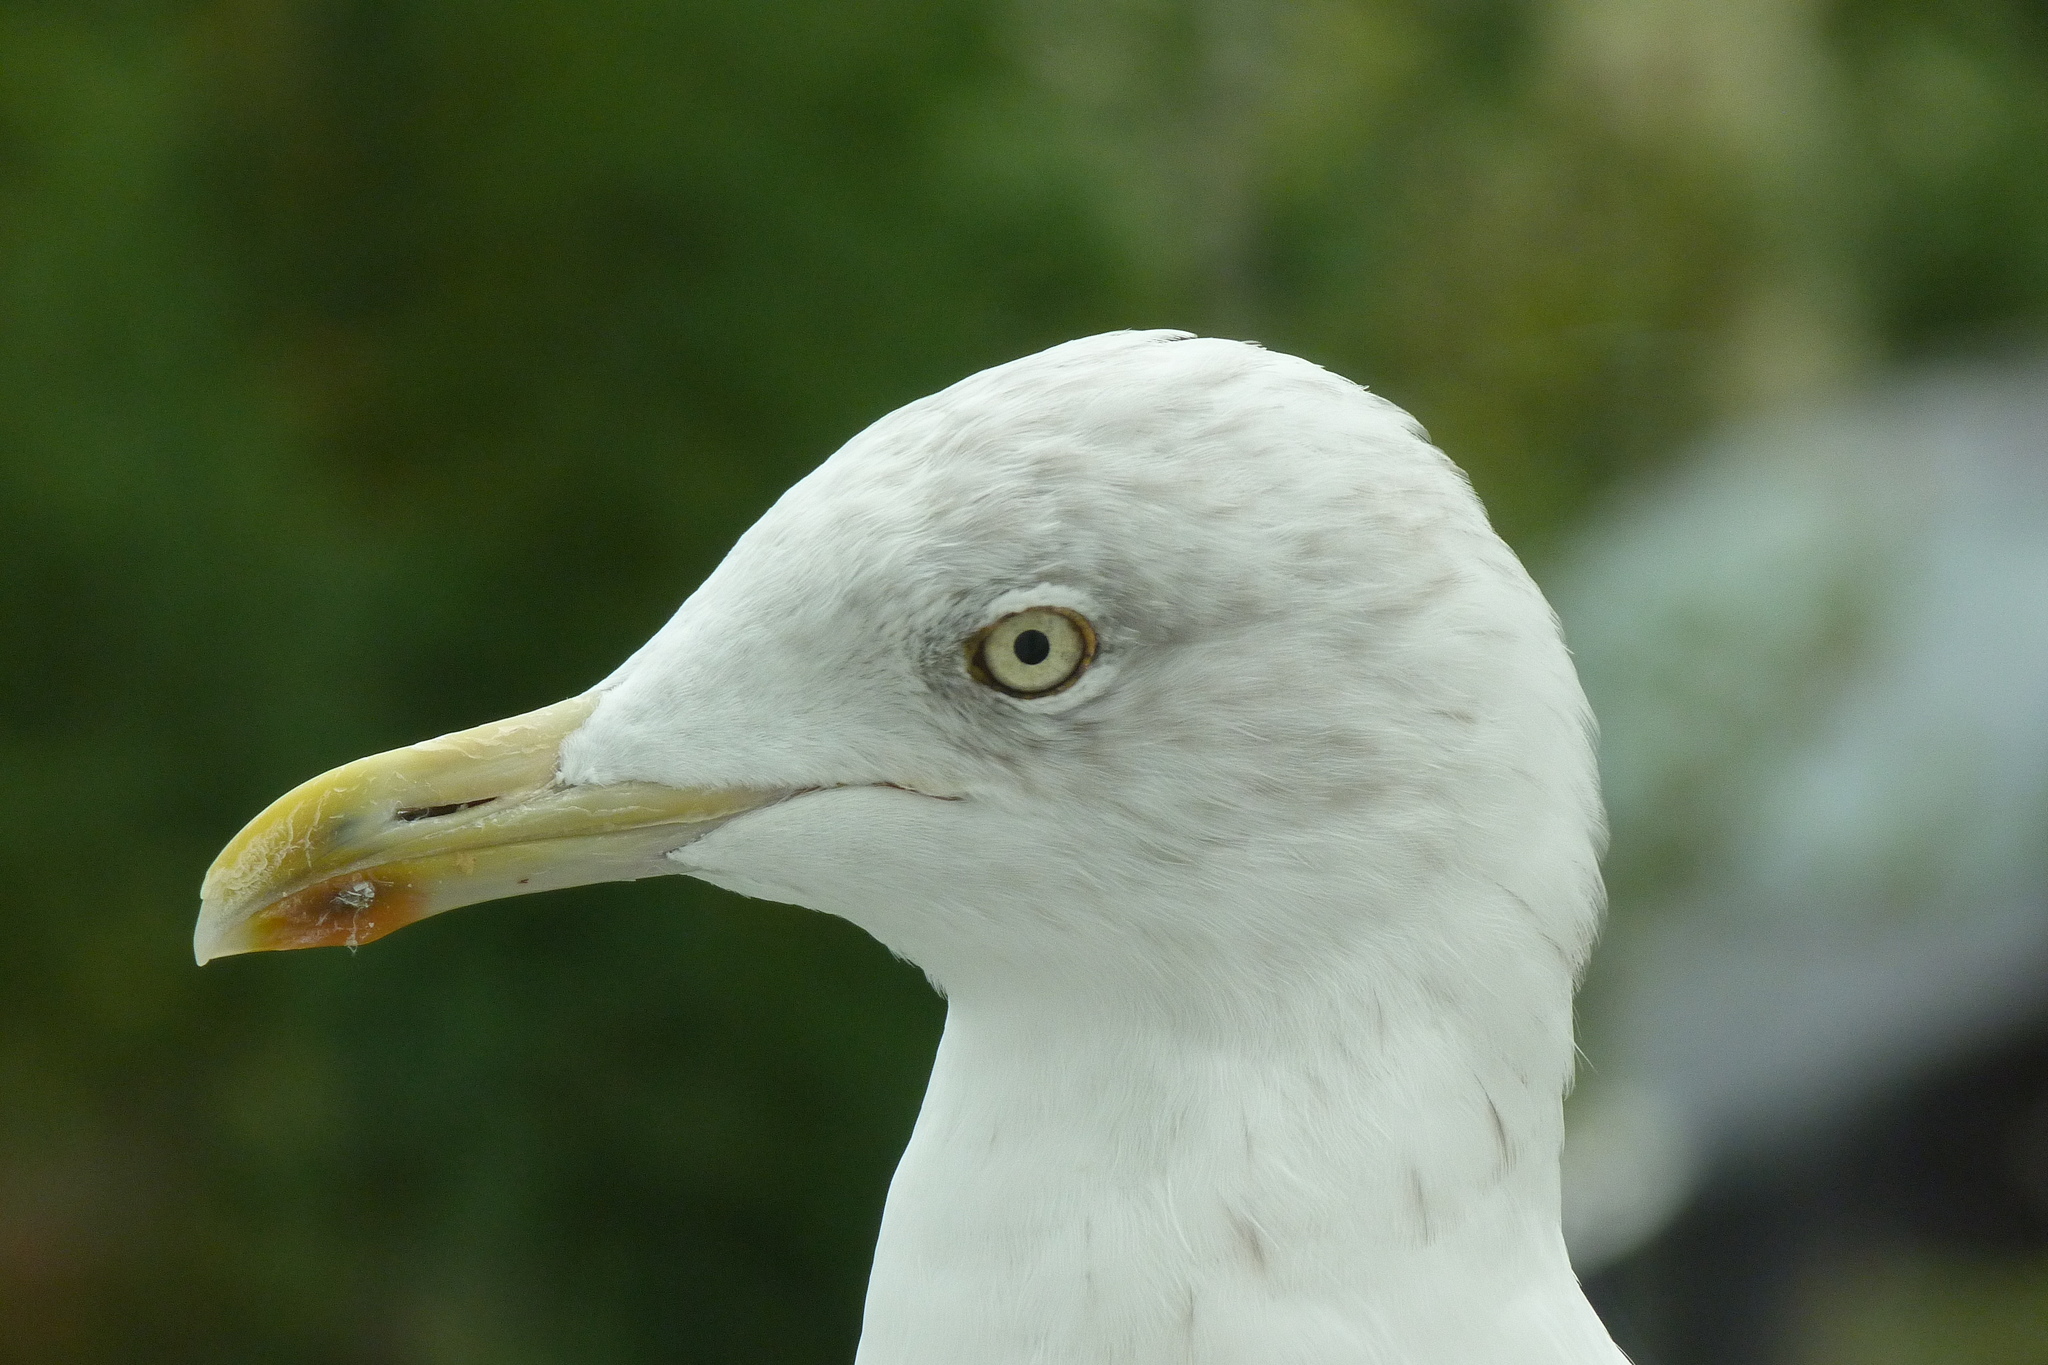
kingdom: Animalia
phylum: Chordata
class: Aves
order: Charadriiformes
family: Laridae
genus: Larus
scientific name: Larus argentatus
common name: Herring gull
